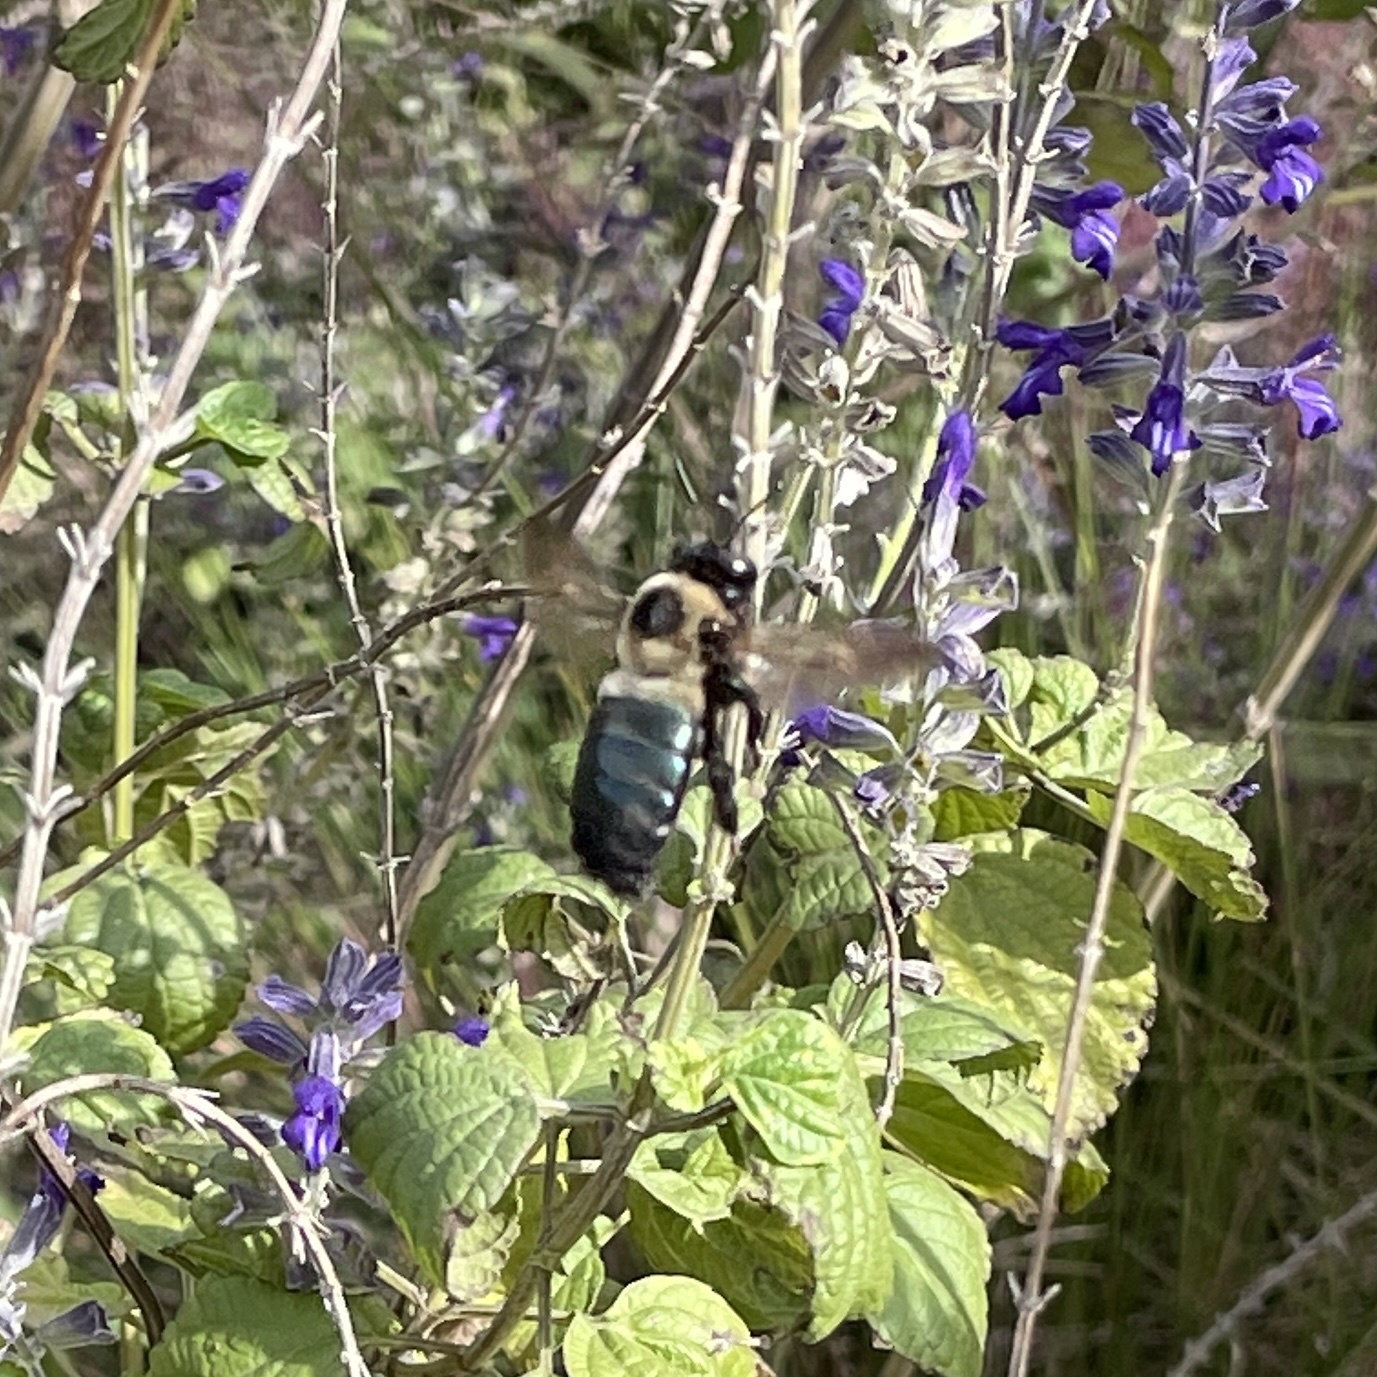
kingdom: Animalia
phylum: Arthropoda
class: Insecta
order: Hymenoptera
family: Apidae
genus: Xylocopa
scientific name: Xylocopa virginica
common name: Carpenter bee
